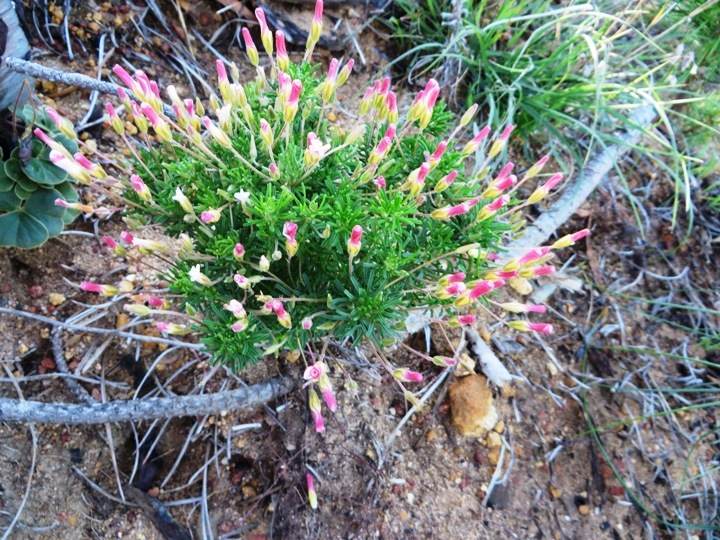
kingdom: Plantae
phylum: Tracheophyta
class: Magnoliopsida
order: Oxalidales
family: Oxalidaceae
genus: Oxalis
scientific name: Oxalis tenuifolia
